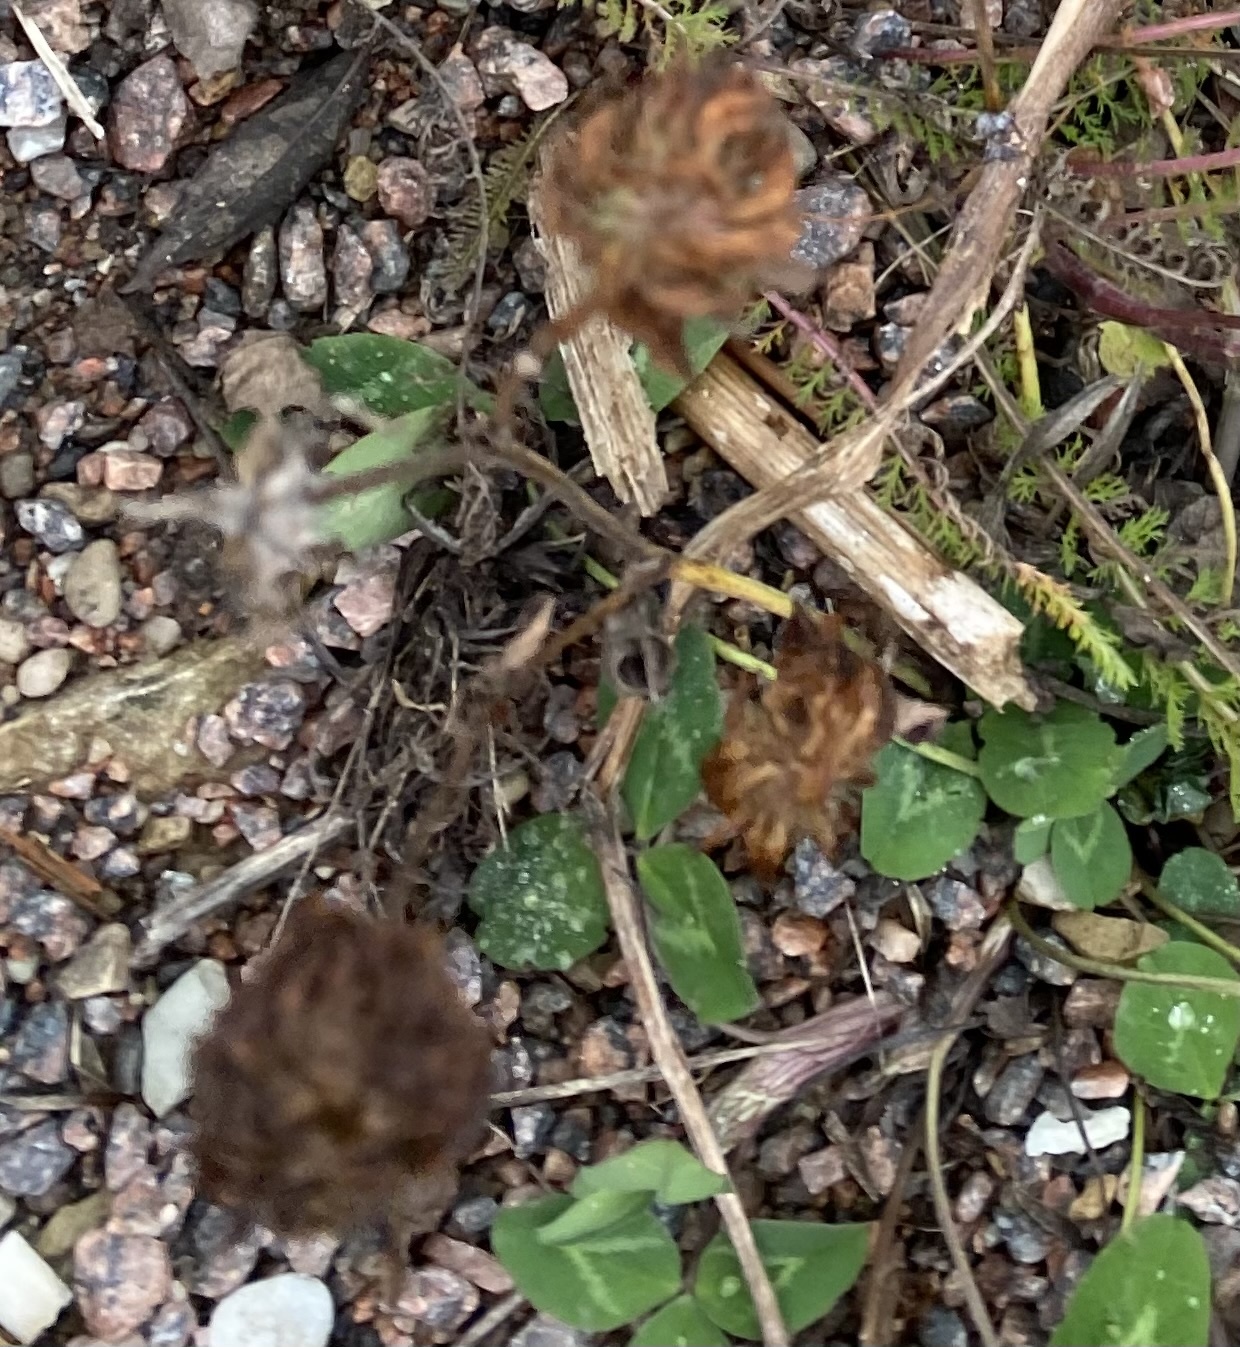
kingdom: Plantae
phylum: Tracheophyta
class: Magnoliopsida
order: Fabales
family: Fabaceae
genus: Trifolium
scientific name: Trifolium pratense
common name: Red clover
